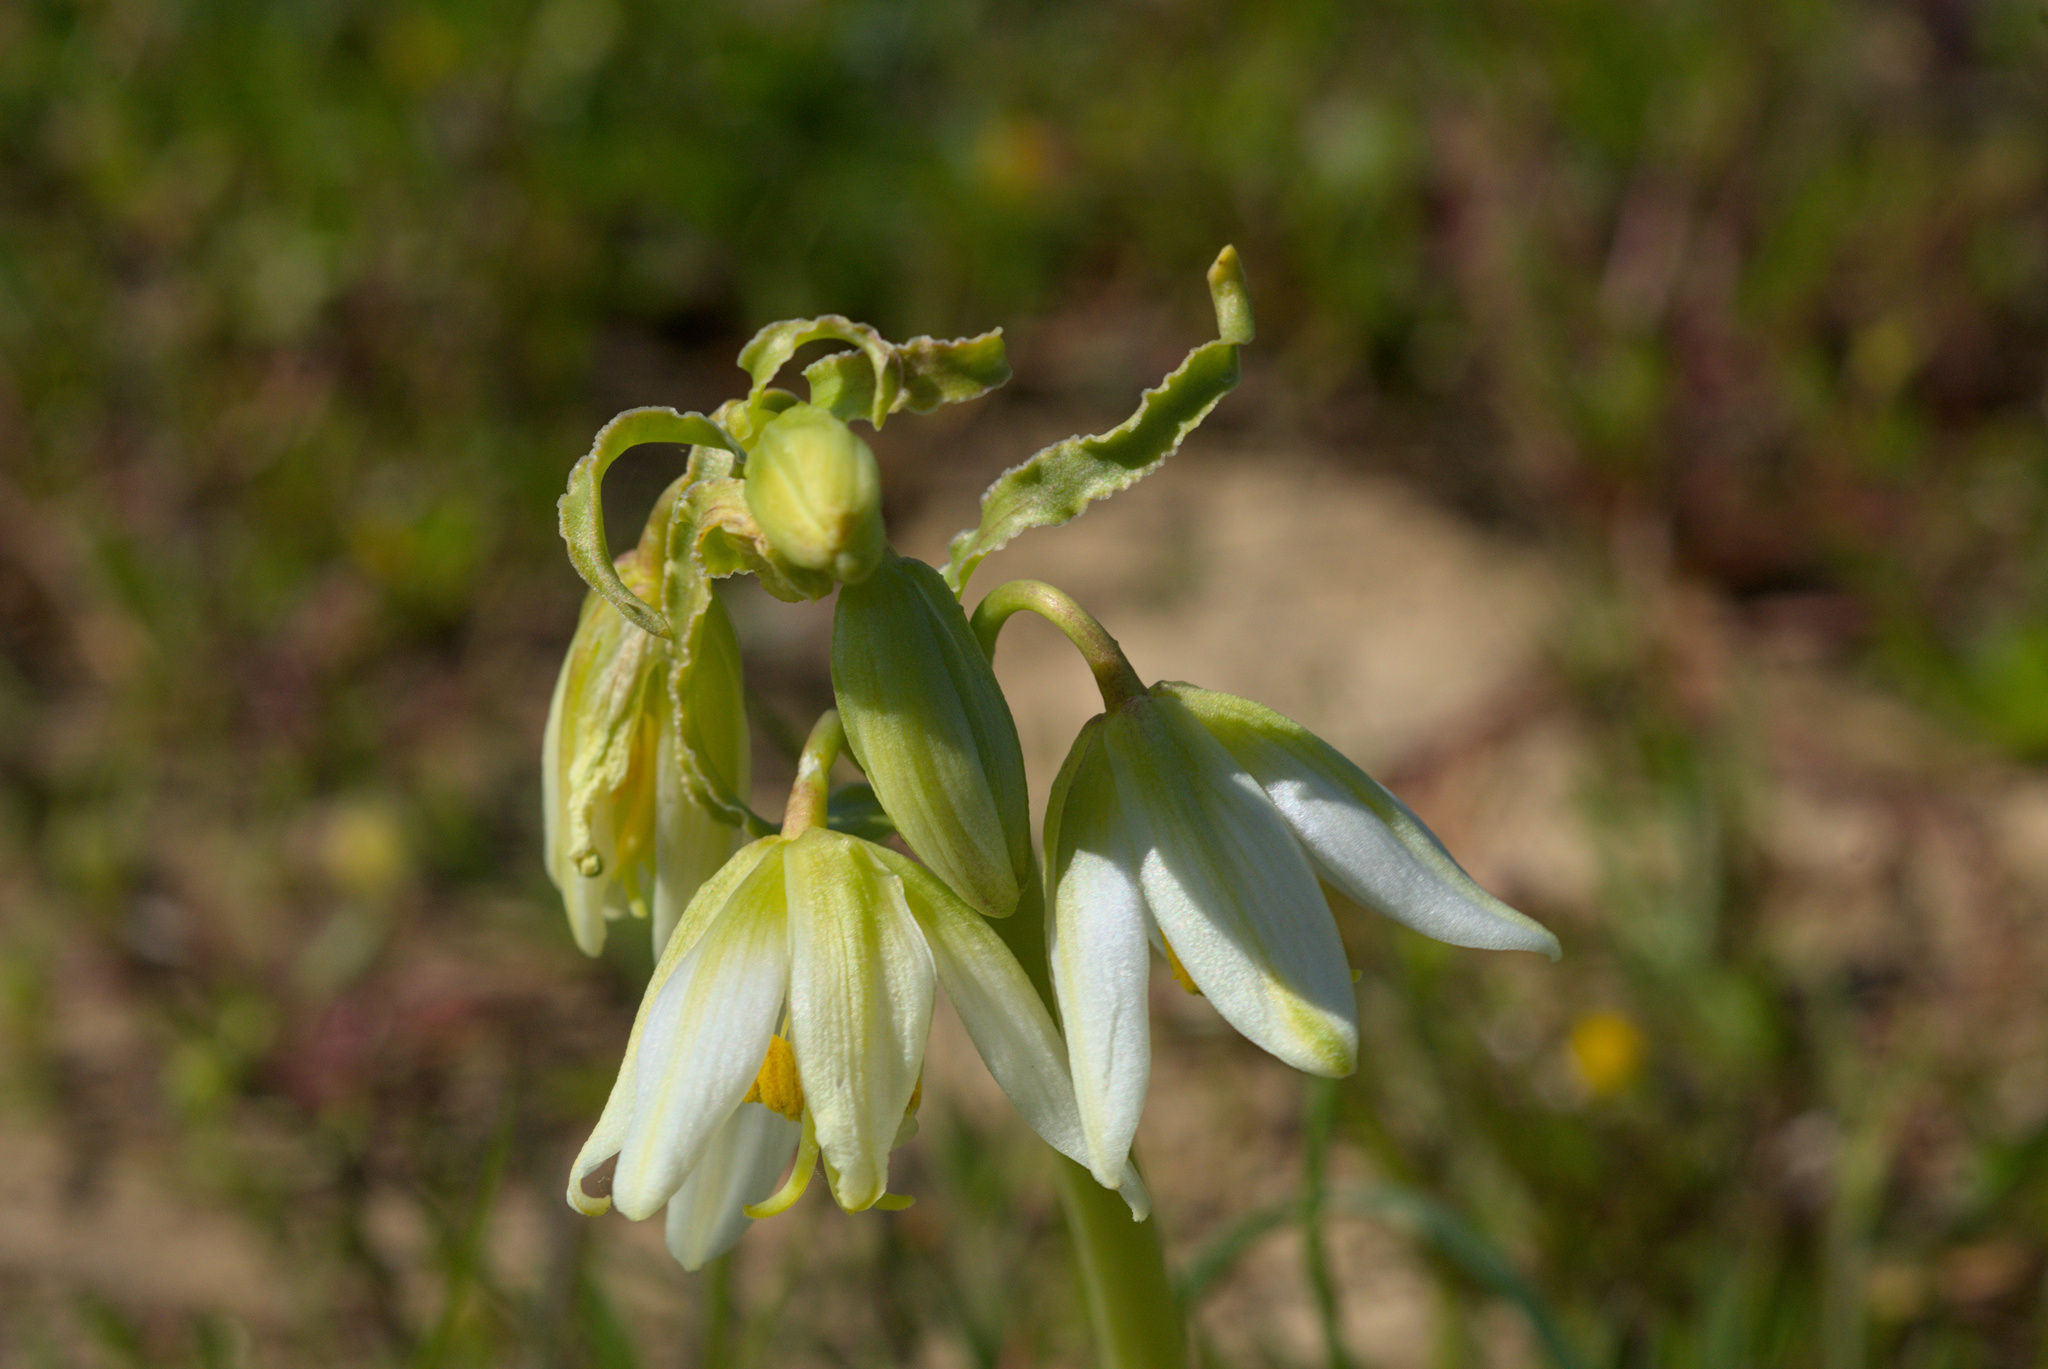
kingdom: Plantae
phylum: Tracheophyta
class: Liliopsida
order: Liliales
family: Liliaceae
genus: Fritillaria
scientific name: Fritillaria liliacea
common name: Fragrant fritillary
